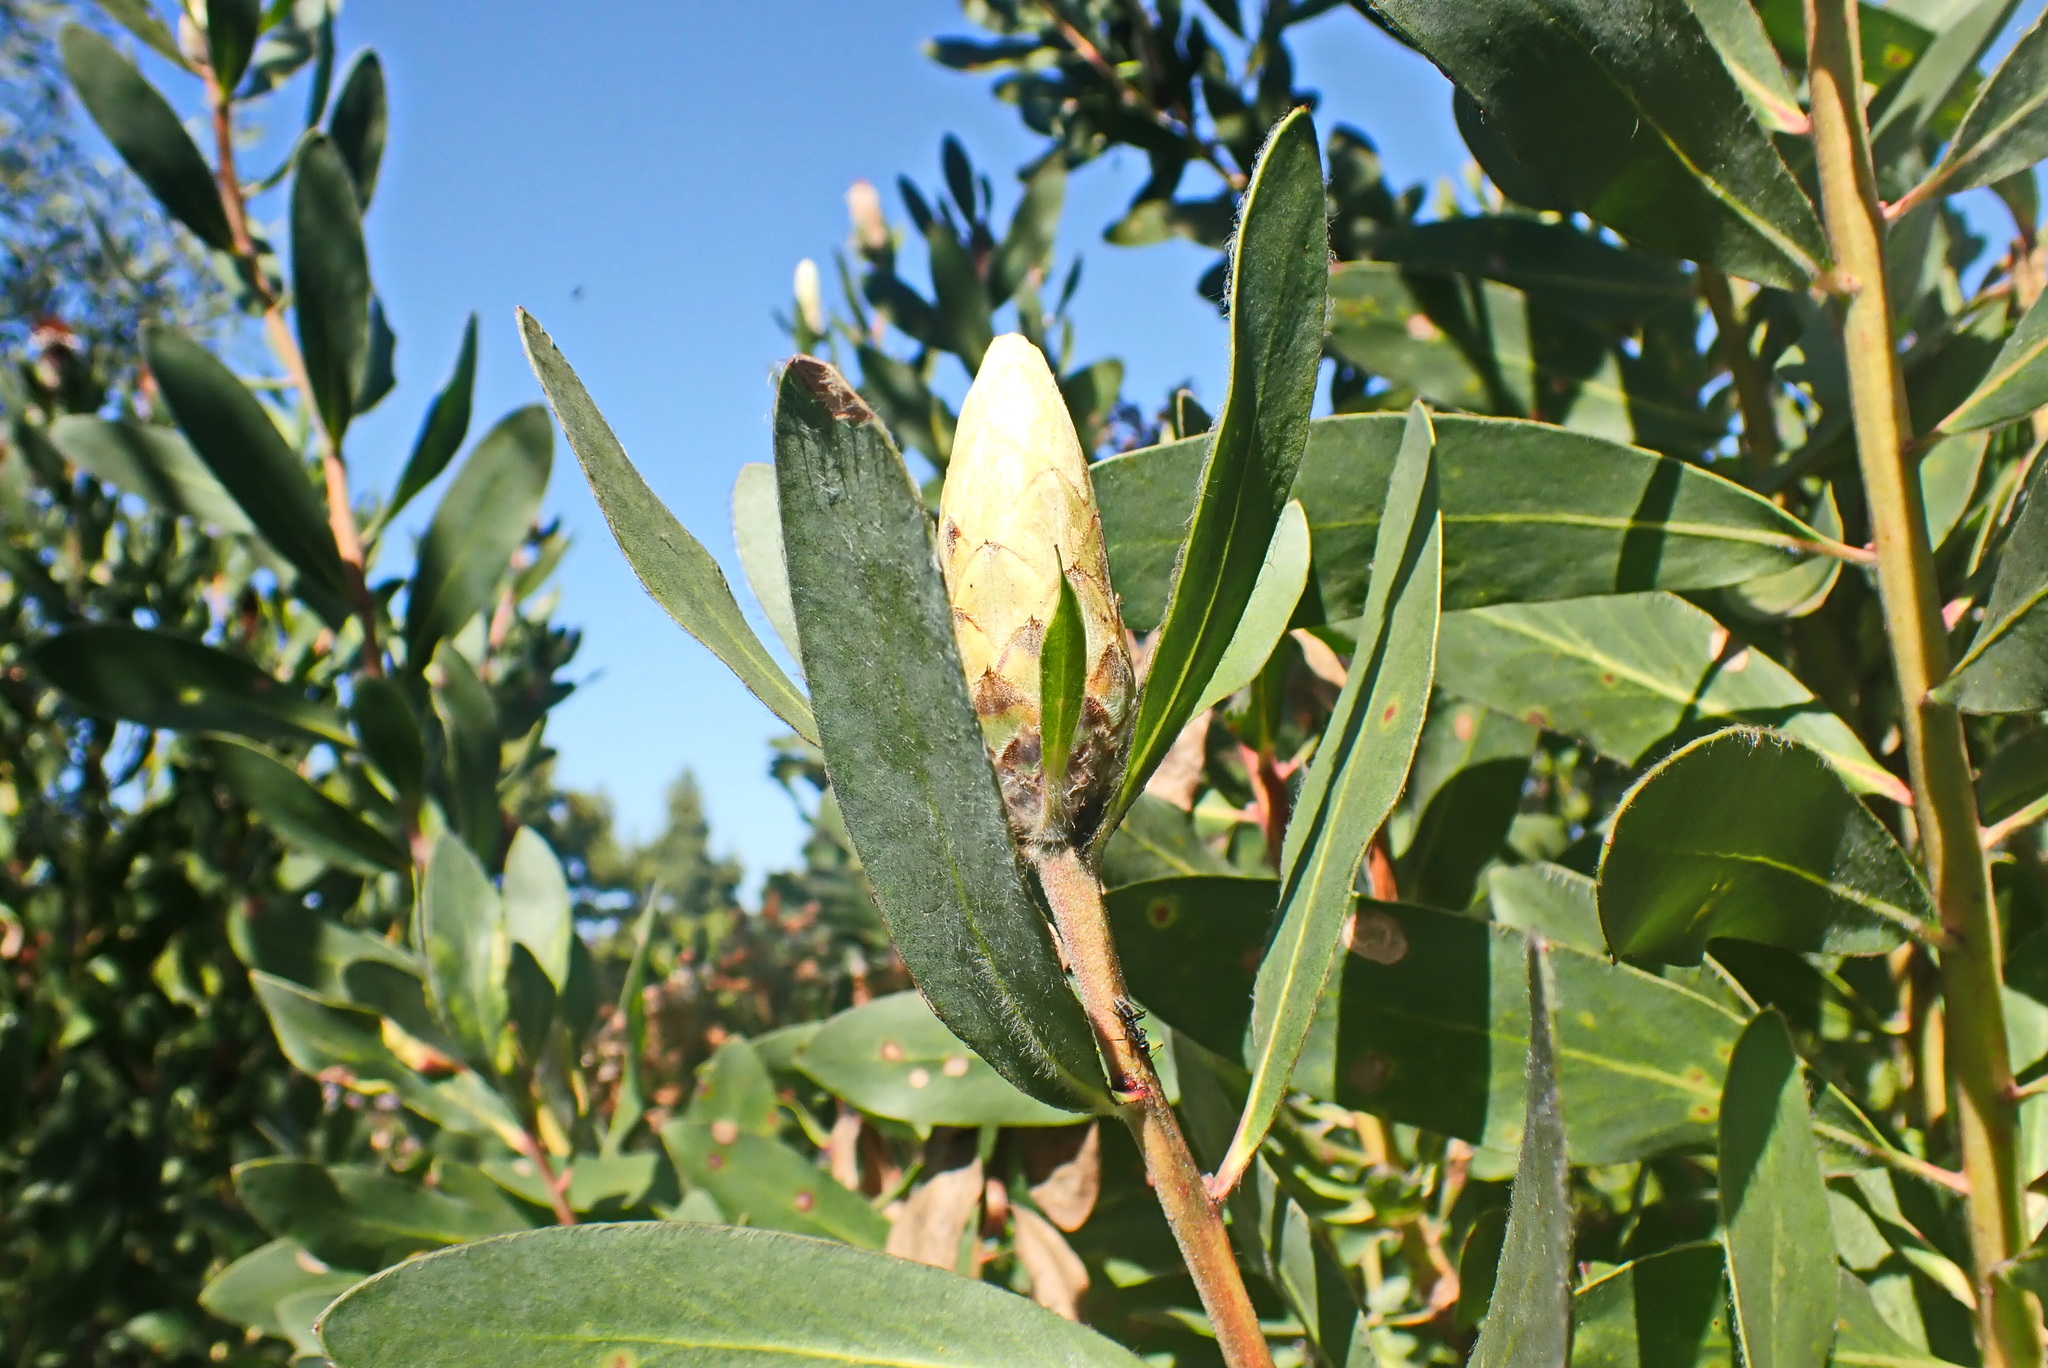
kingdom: Plantae
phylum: Tracheophyta
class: Magnoliopsida
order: Proteales
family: Proteaceae
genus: Protea
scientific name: Protea mundii
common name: Forest sugarbush
